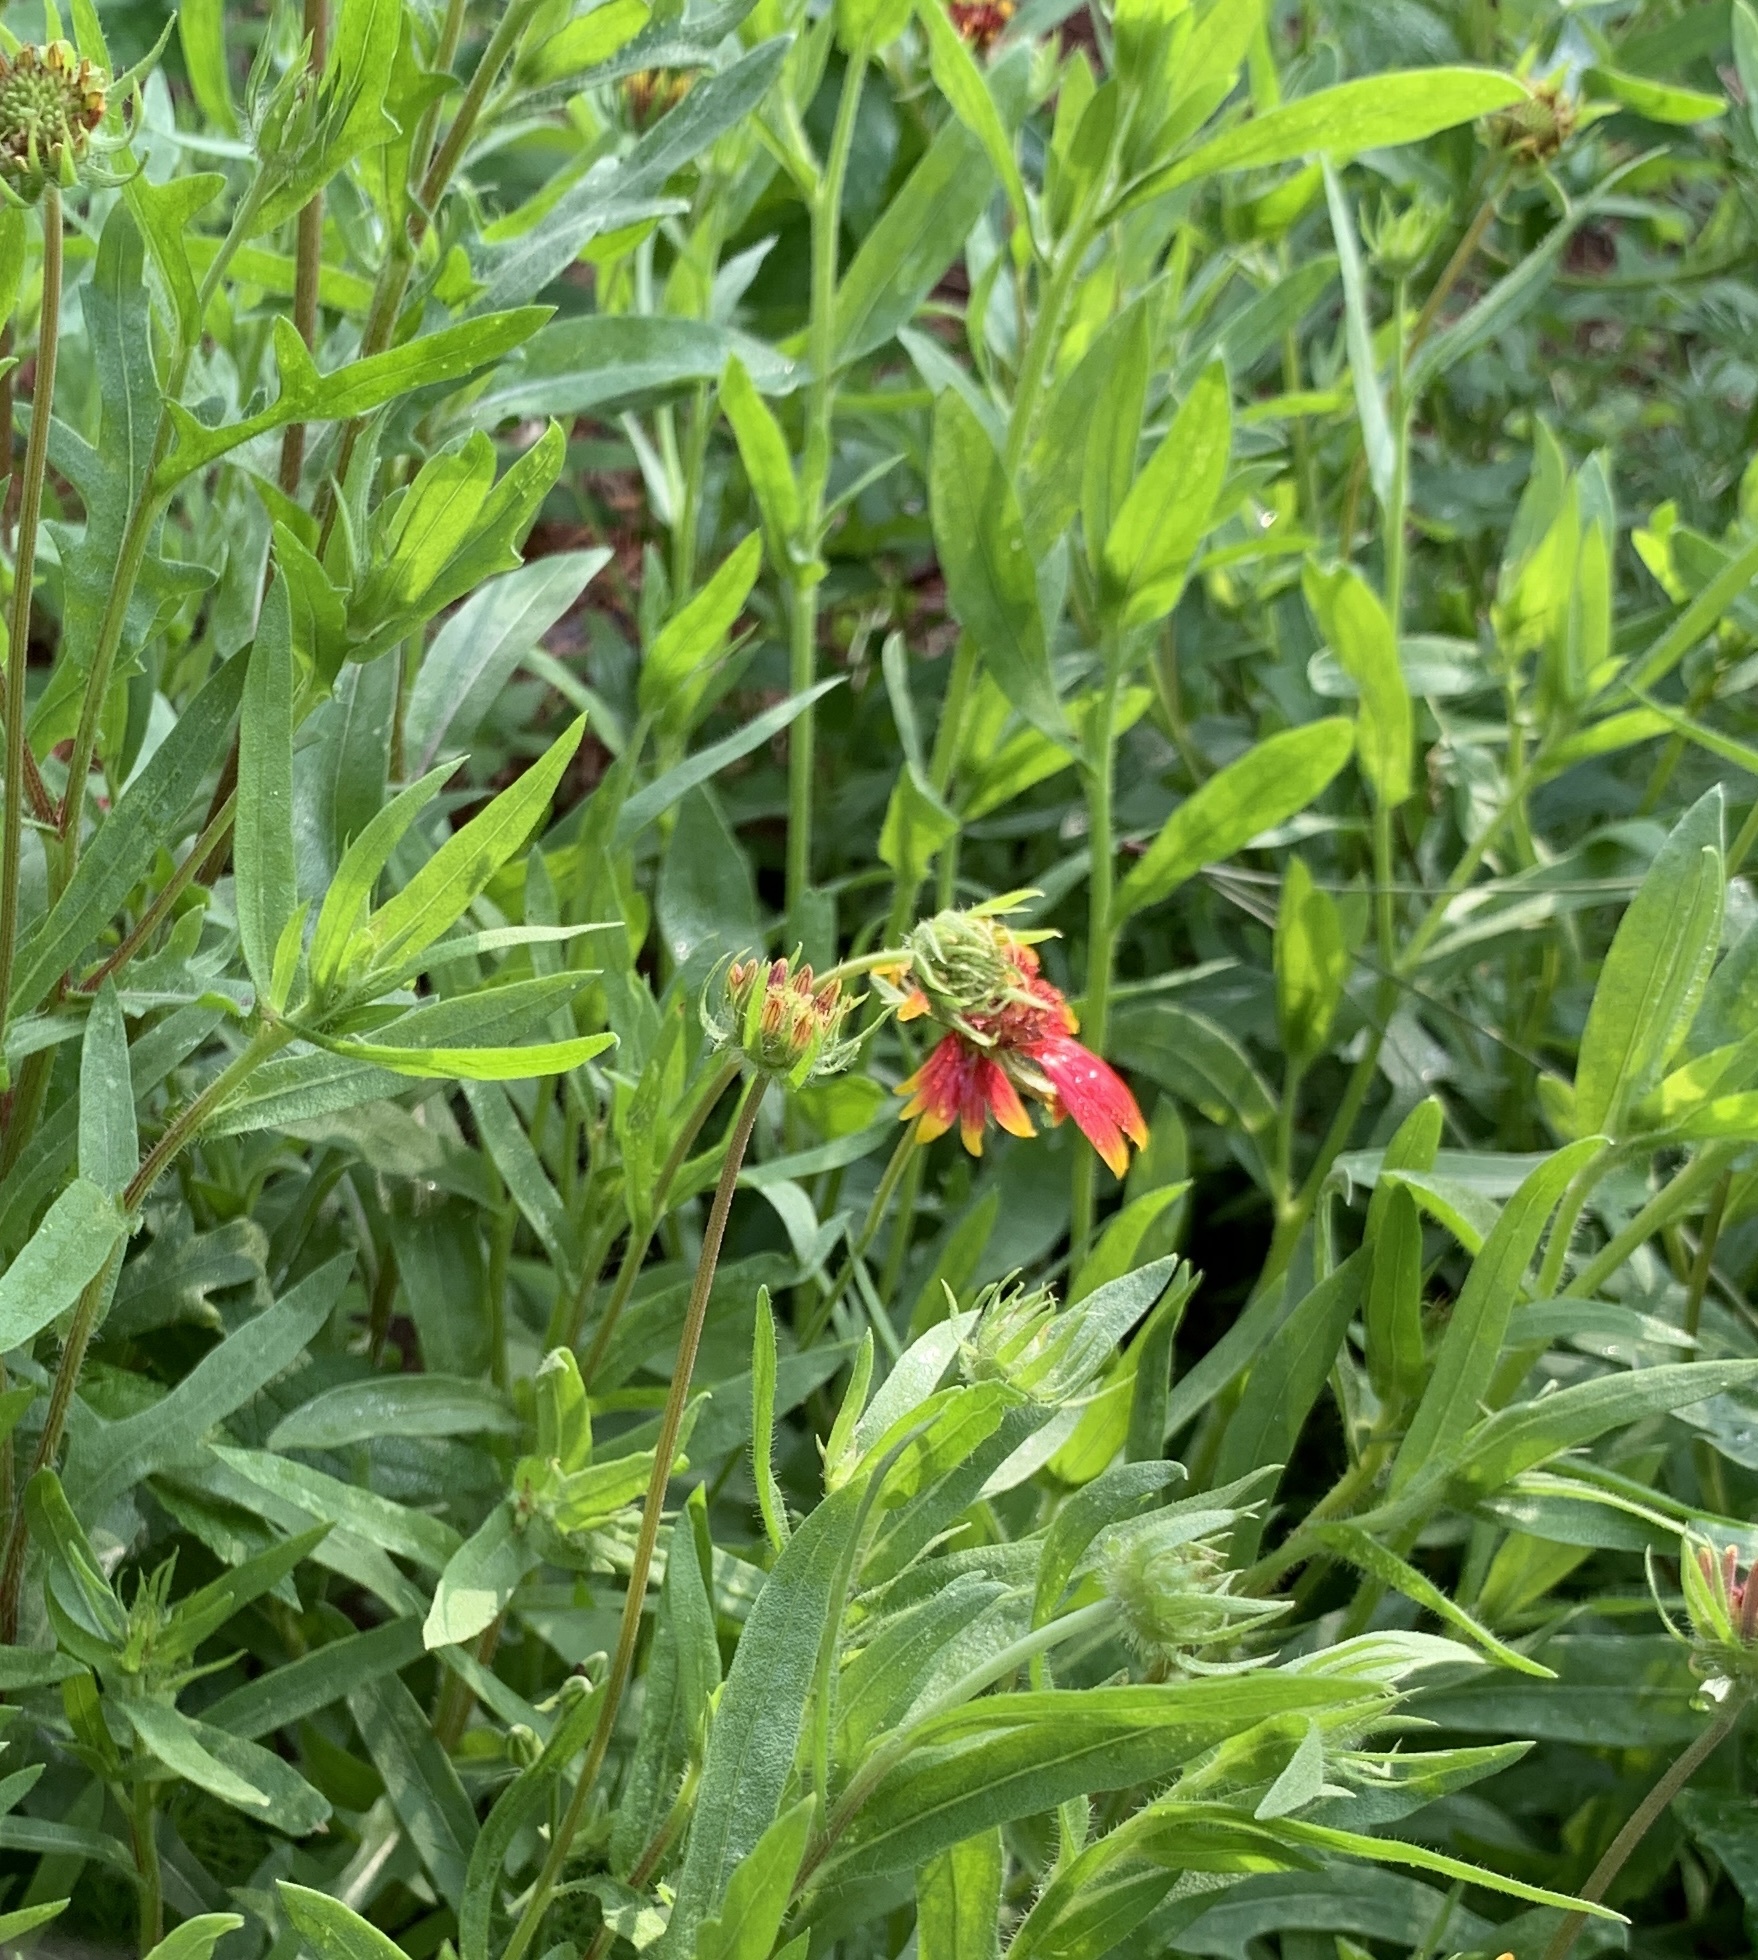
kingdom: Plantae
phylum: Tracheophyta
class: Magnoliopsida
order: Asterales
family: Asteraceae
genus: Gaillardia
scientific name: Gaillardia pulchella
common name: Firewheel
